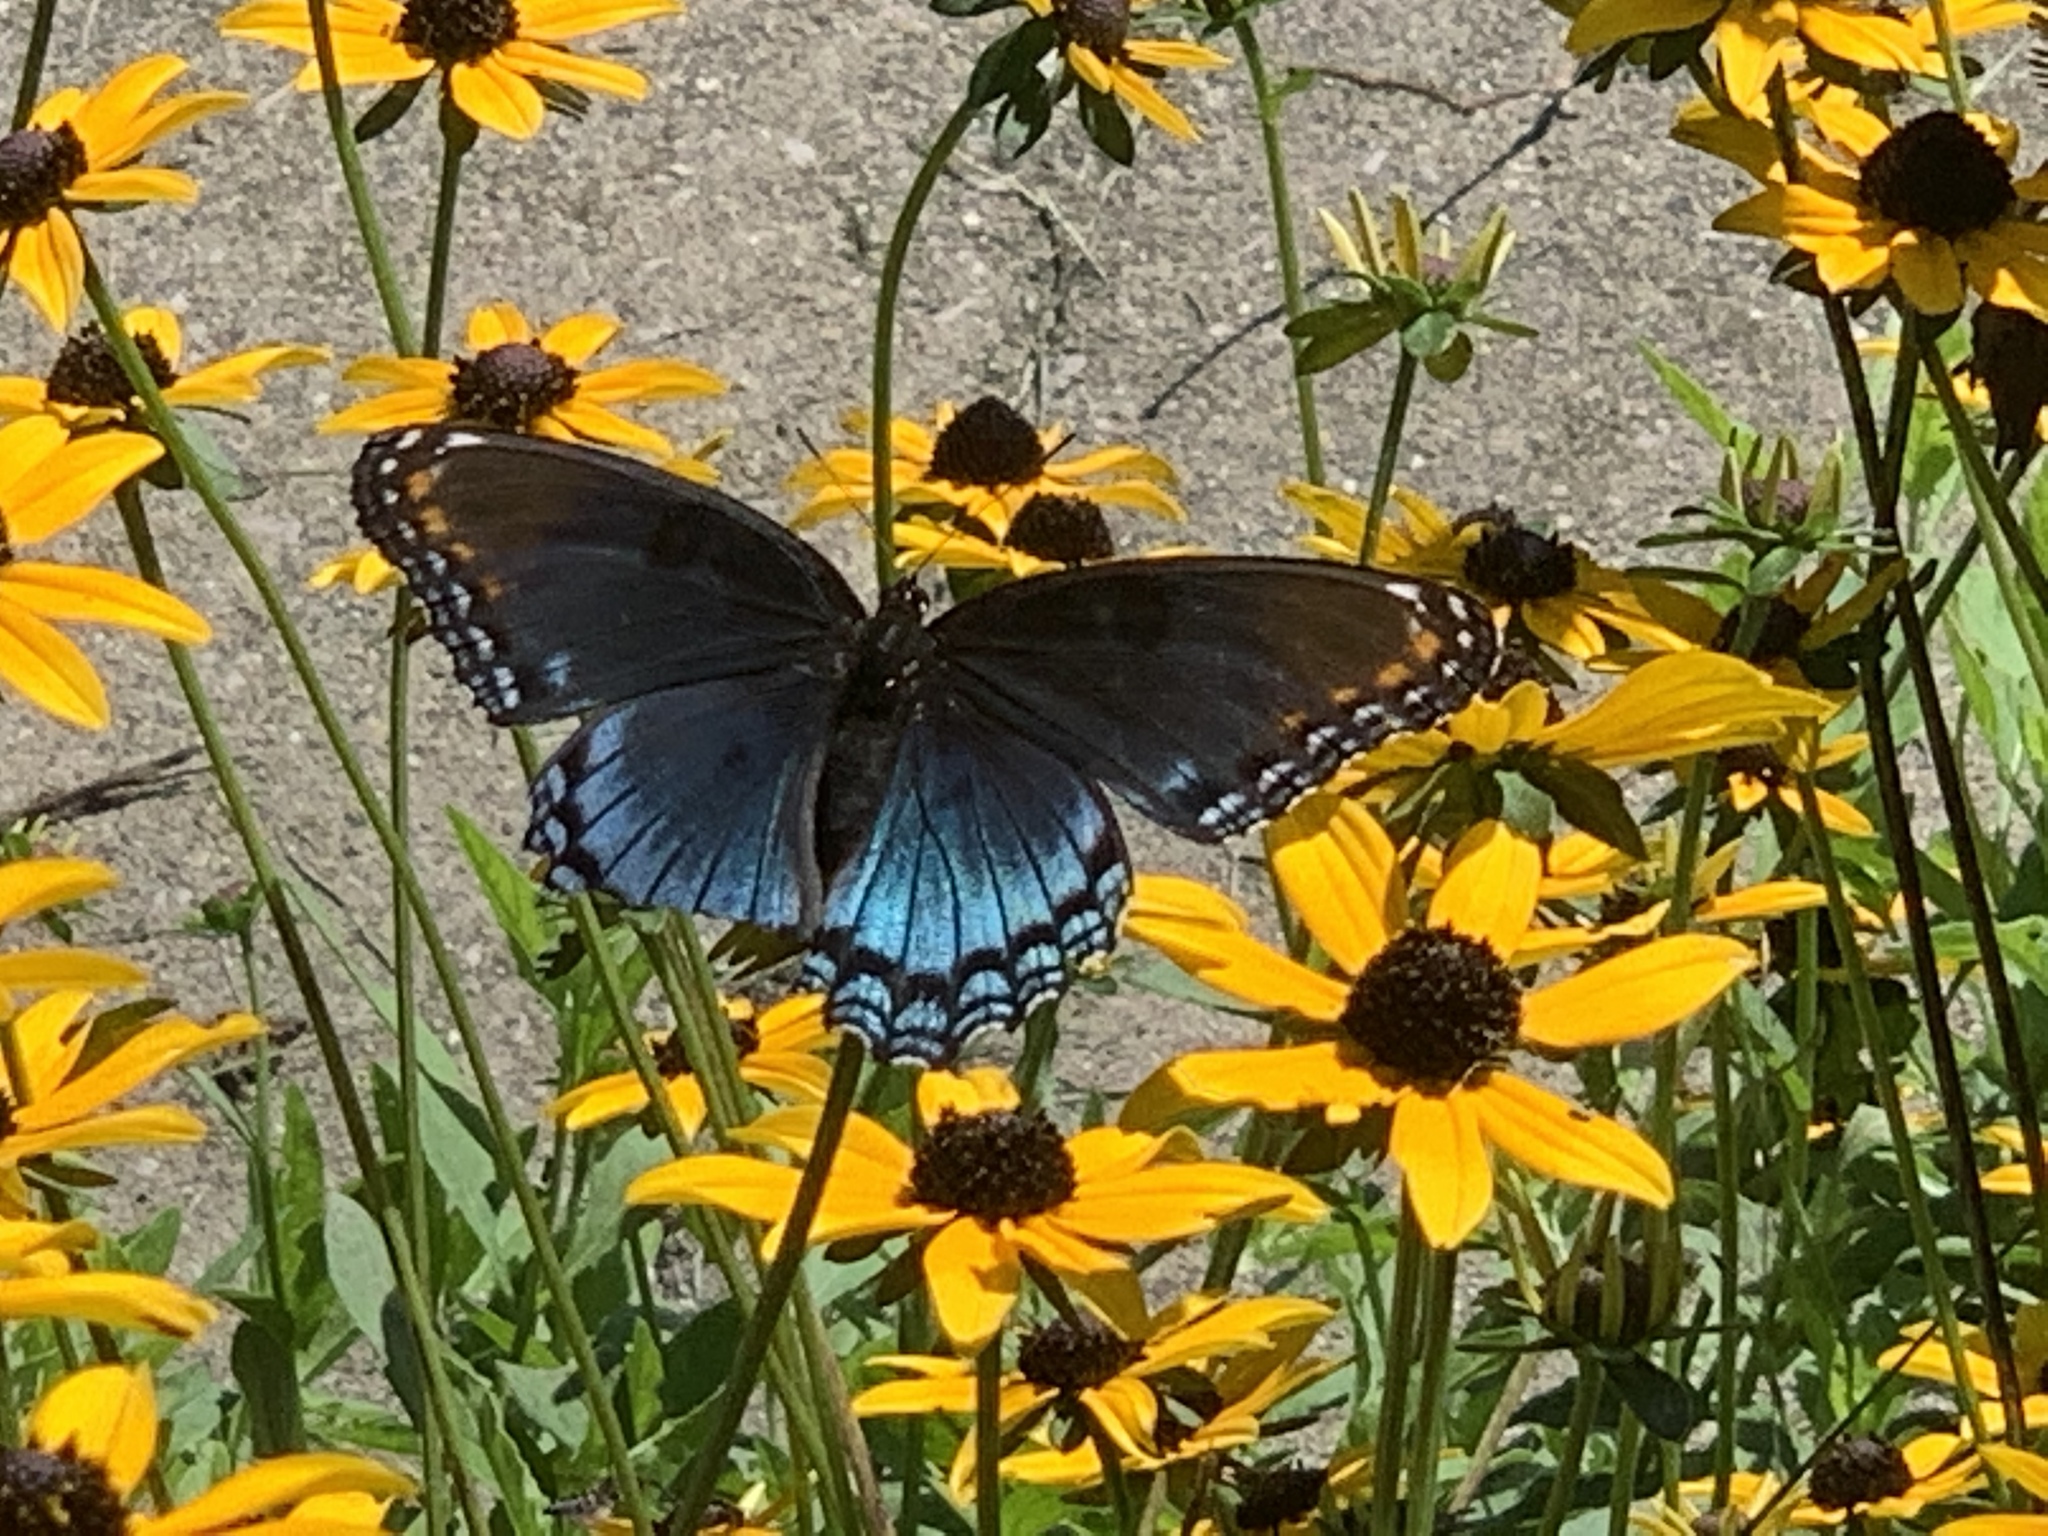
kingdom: Animalia
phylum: Arthropoda
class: Insecta
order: Lepidoptera
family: Nymphalidae
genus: Limenitis
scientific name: Limenitis astyanax
